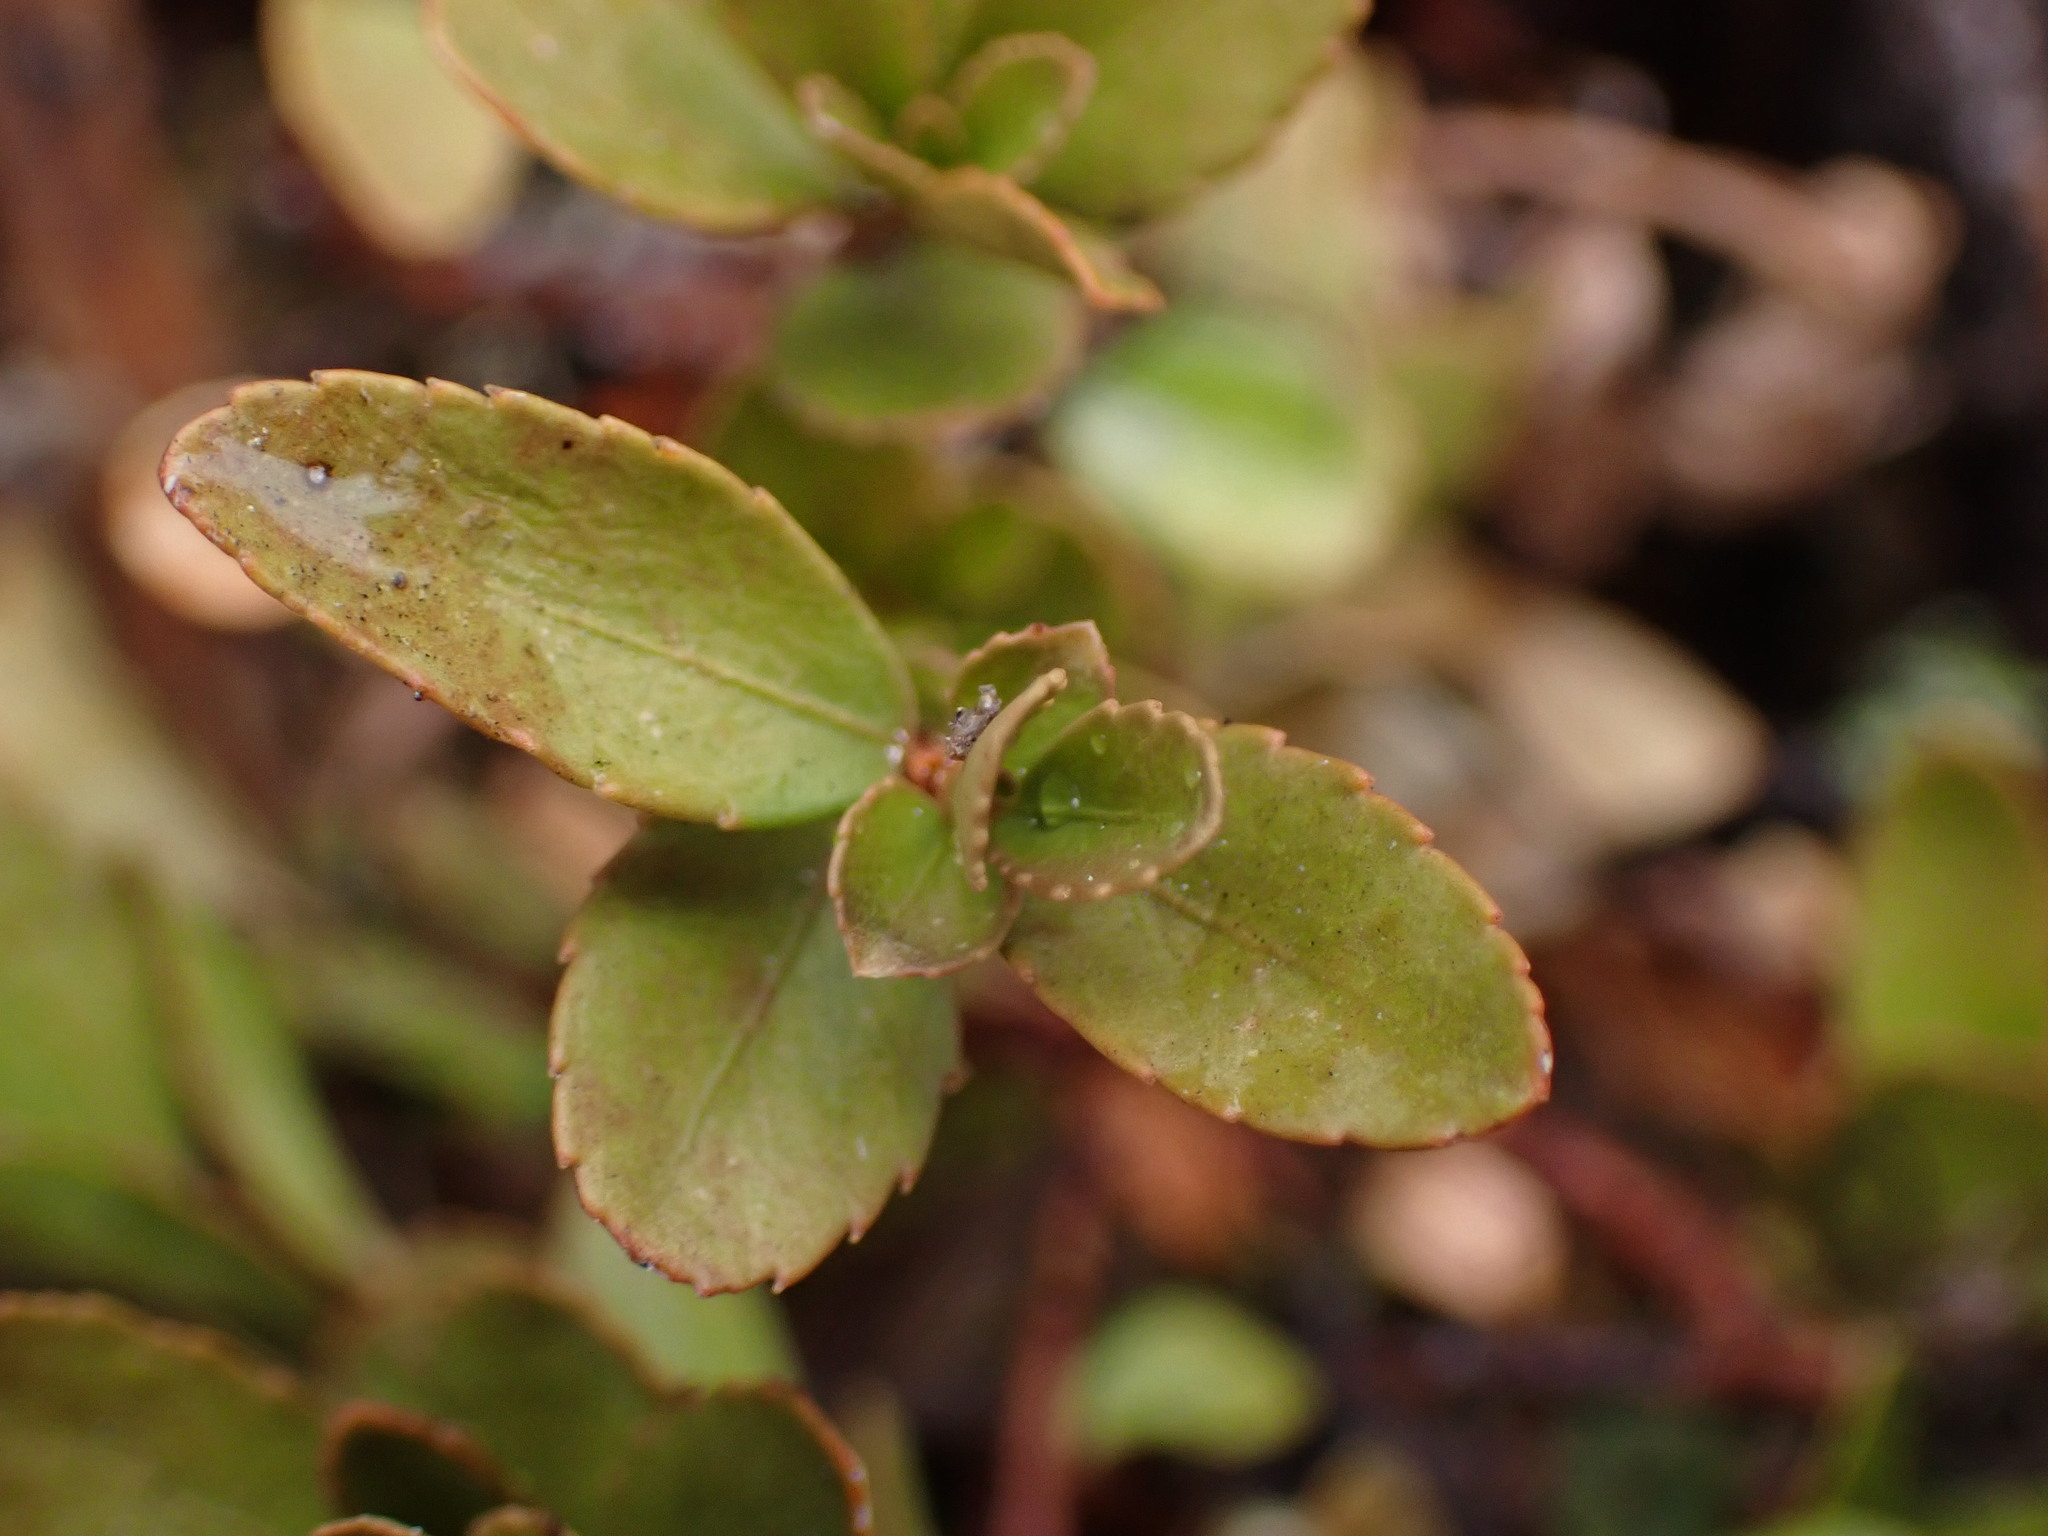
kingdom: Plantae
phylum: Tracheophyta
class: Magnoliopsida
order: Celastrales
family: Celastraceae
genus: Paxistima
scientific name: Paxistima myrsinites
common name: Mountain-lover
